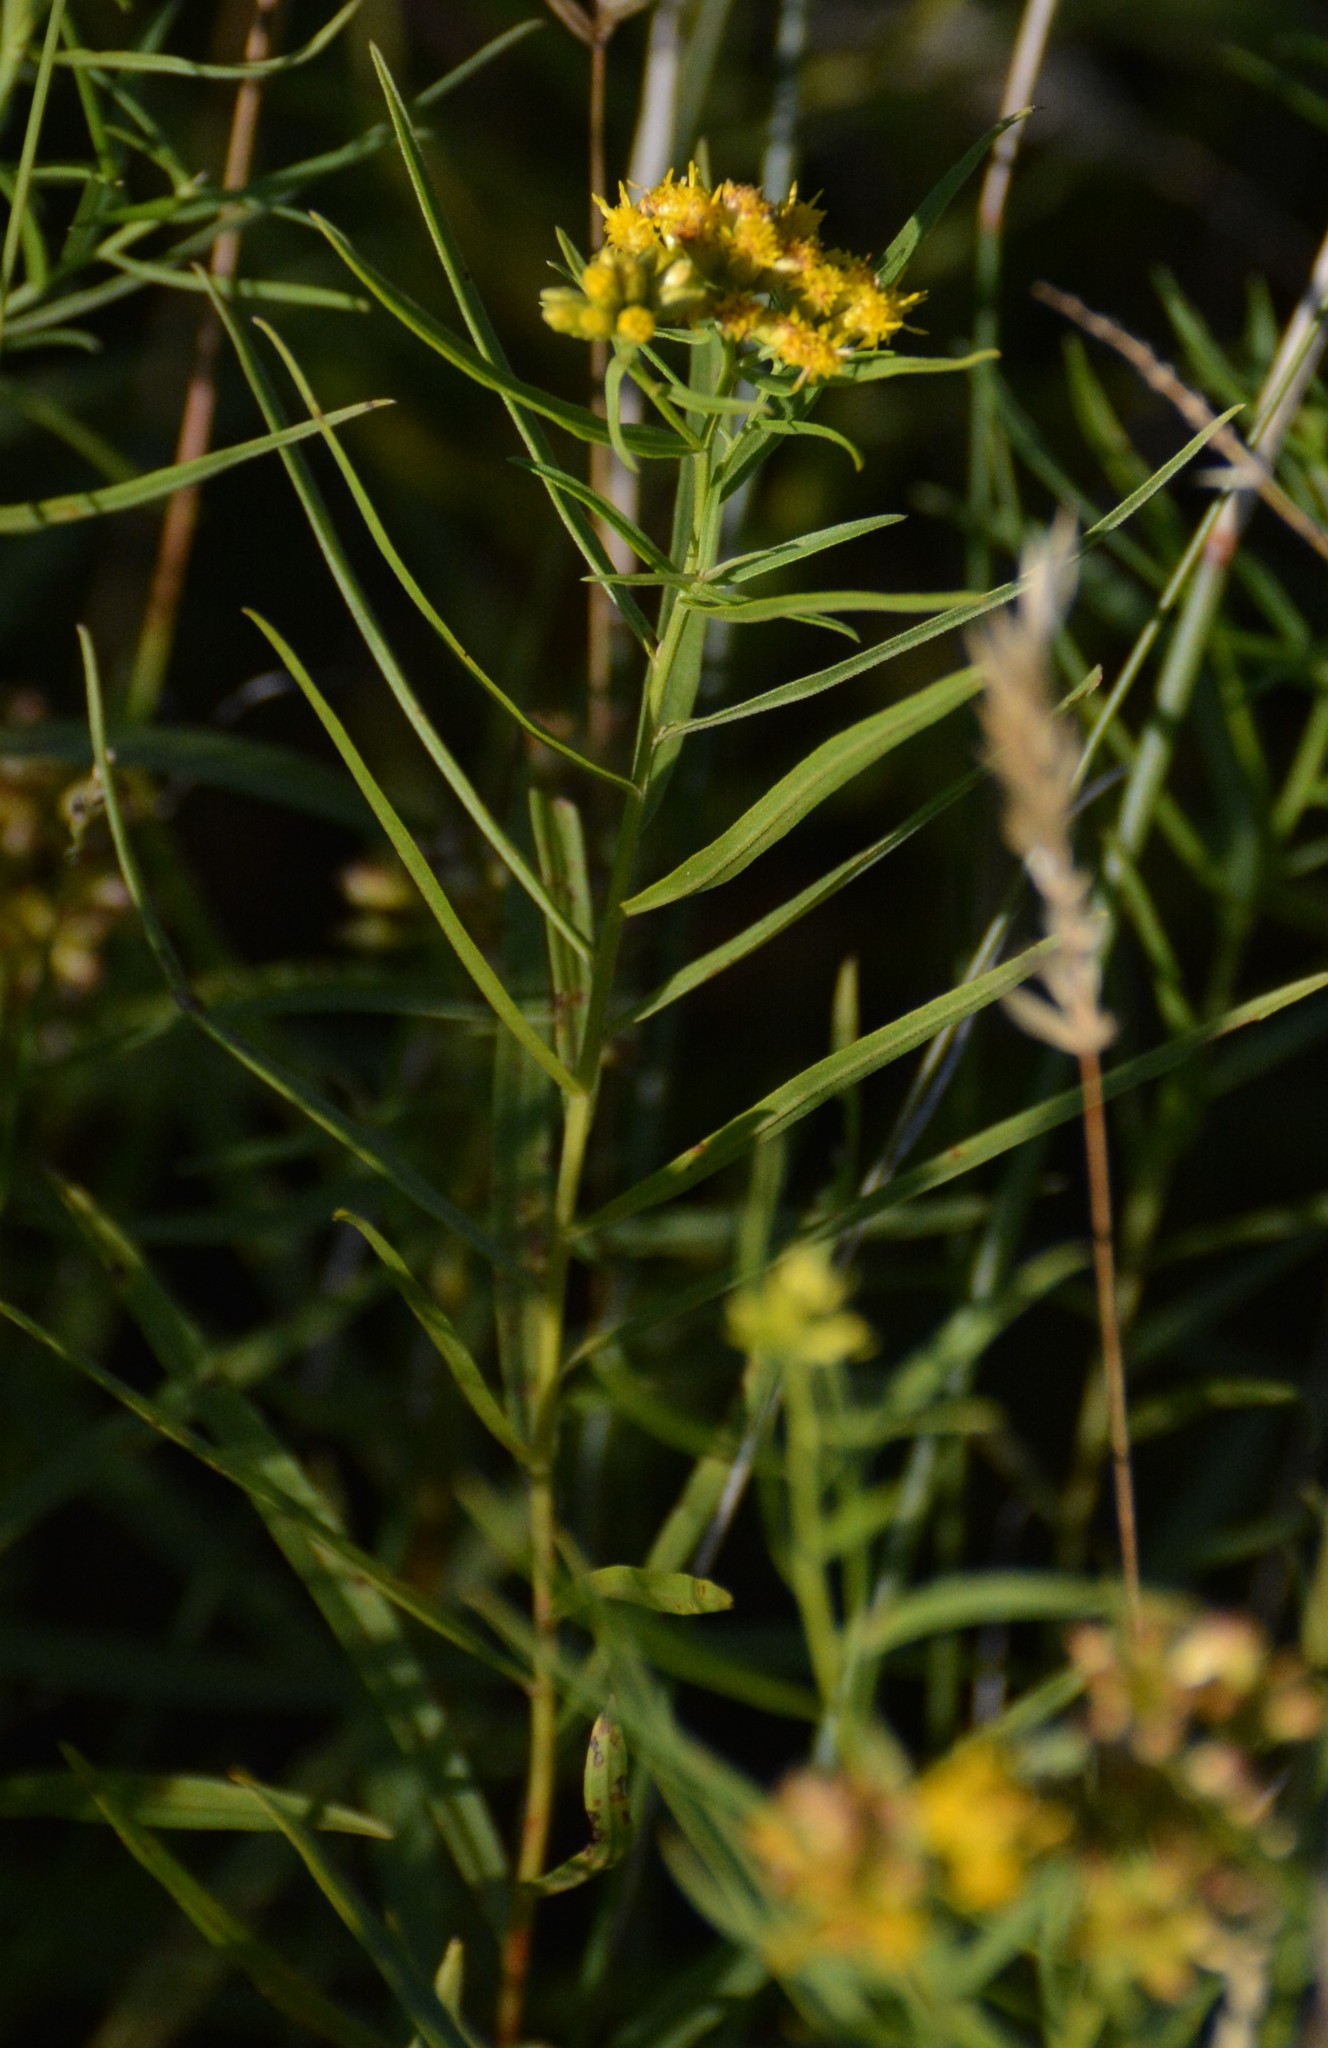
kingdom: Plantae
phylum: Tracheophyta
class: Magnoliopsida
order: Asterales
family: Asteraceae
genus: Euthamia
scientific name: Euthamia graminifolia
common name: Common goldentop
